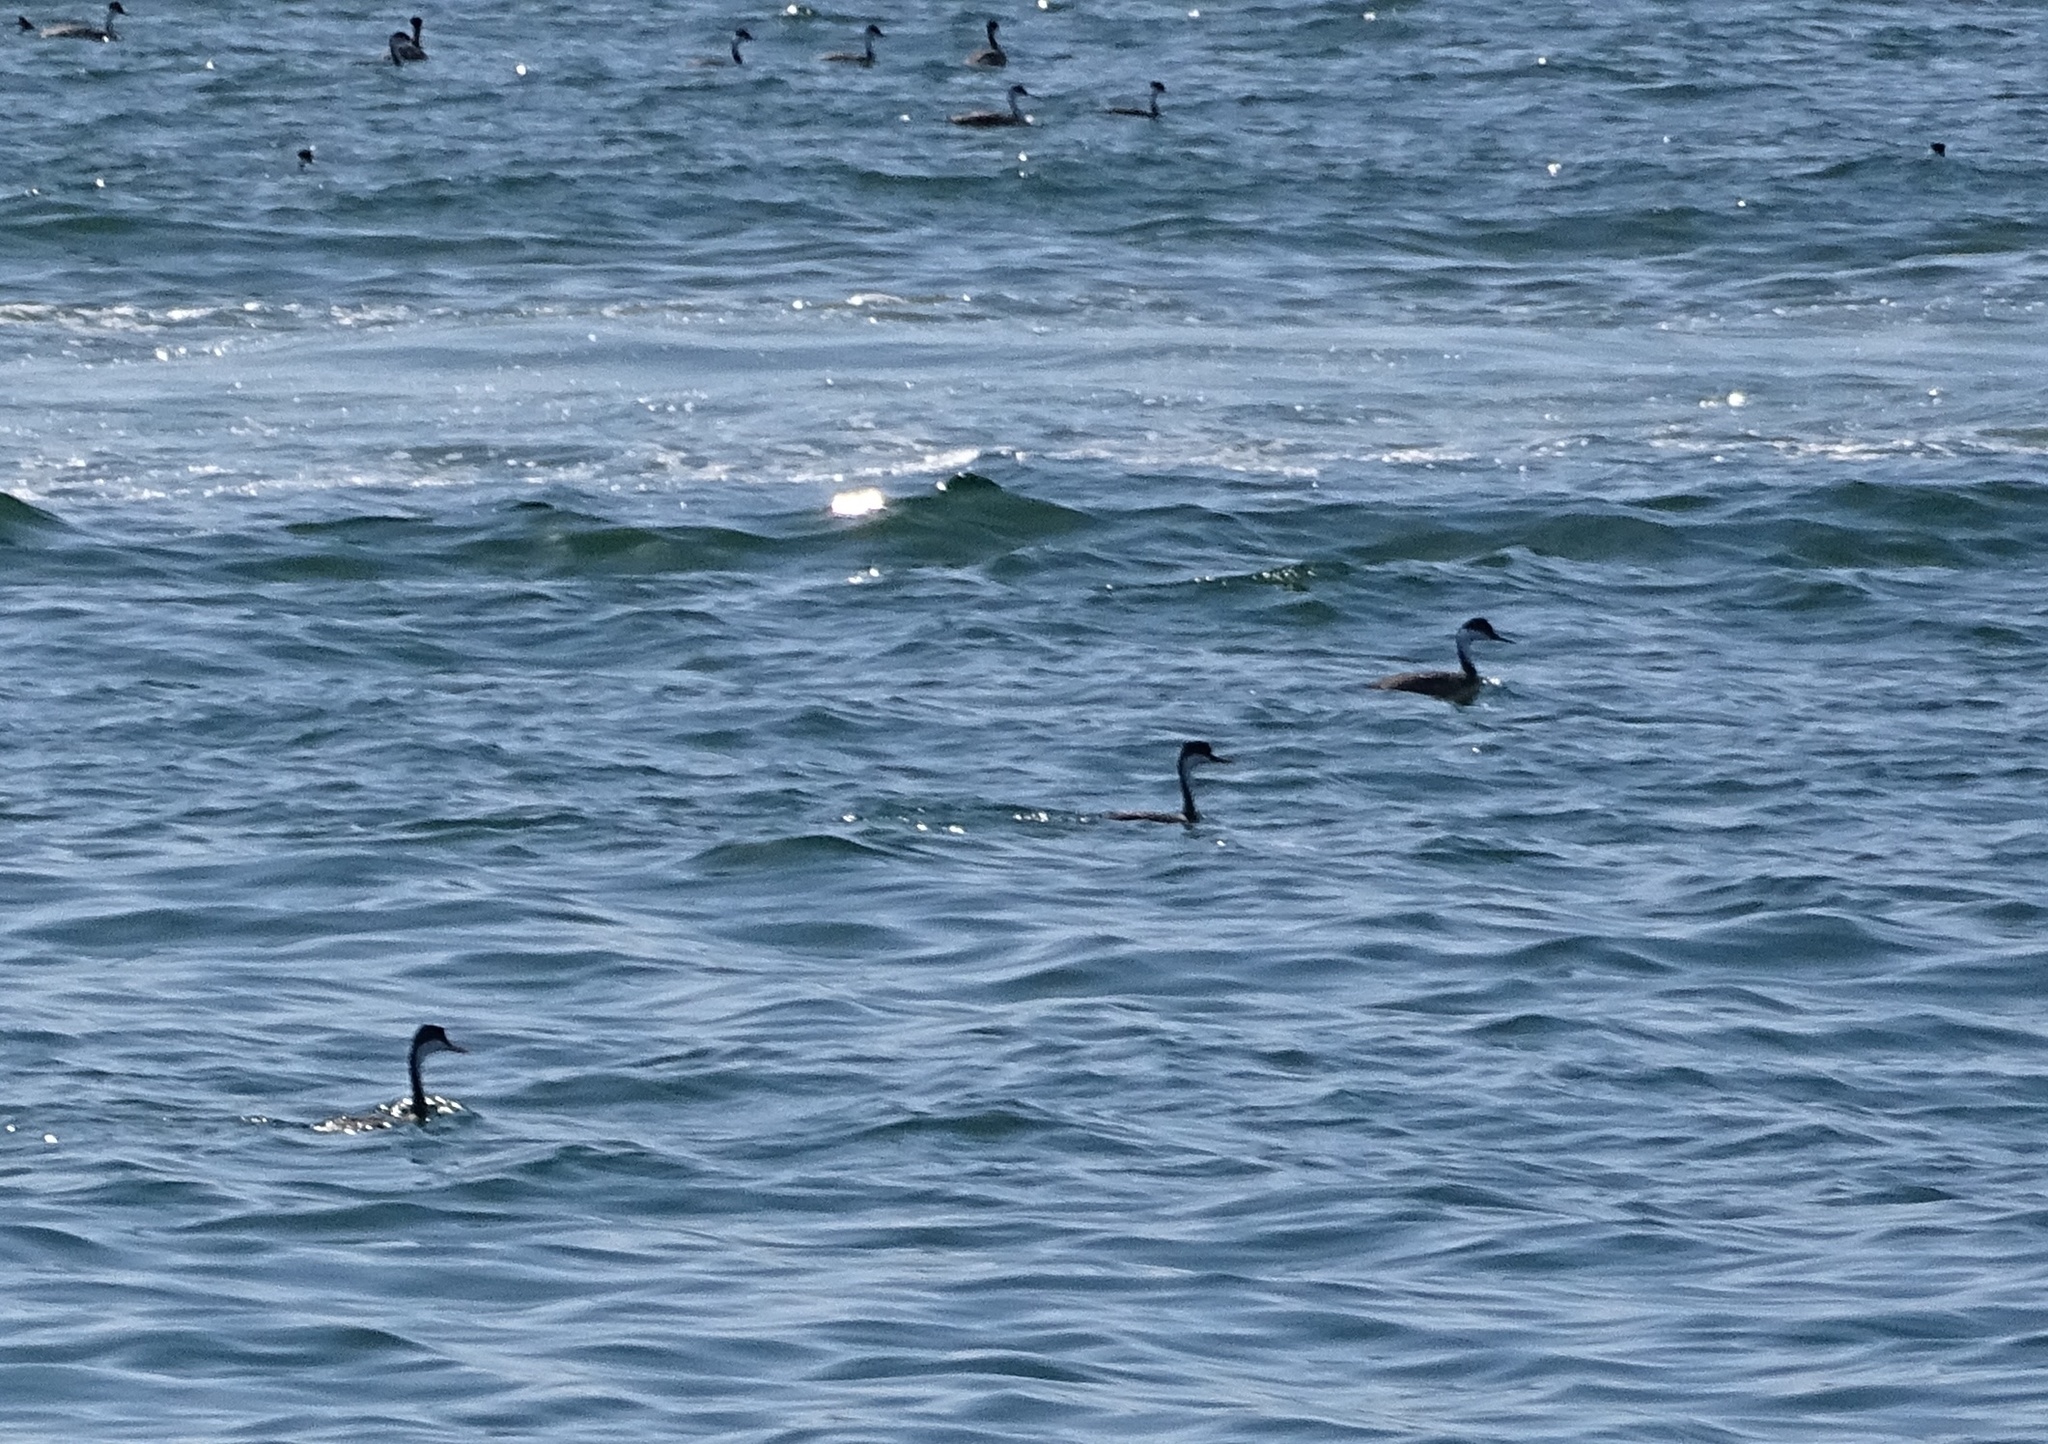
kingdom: Animalia
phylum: Chordata
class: Aves
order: Podicipediformes
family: Podicipedidae
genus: Aechmophorus
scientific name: Aechmophorus occidentalis
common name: Western grebe
